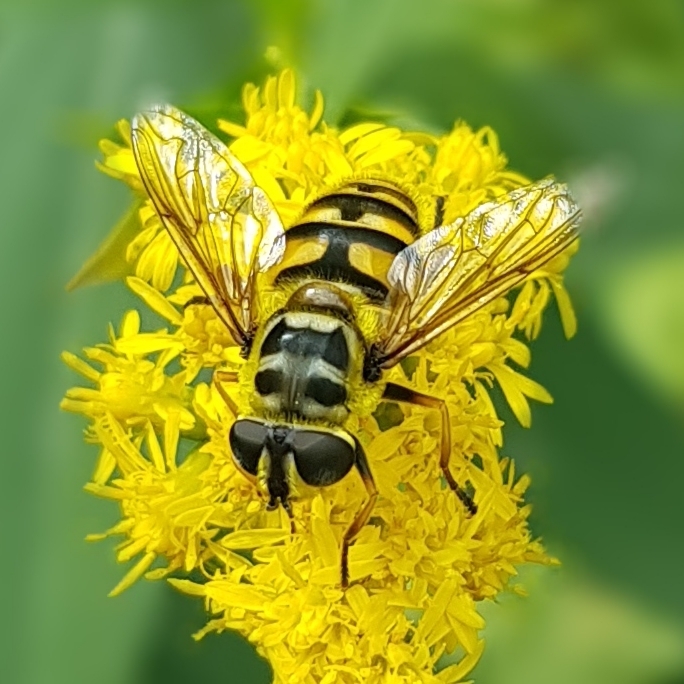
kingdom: Animalia
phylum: Arthropoda
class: Insecta
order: Diptera
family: Syrphidae
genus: Myathropa
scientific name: Myathropa florea
